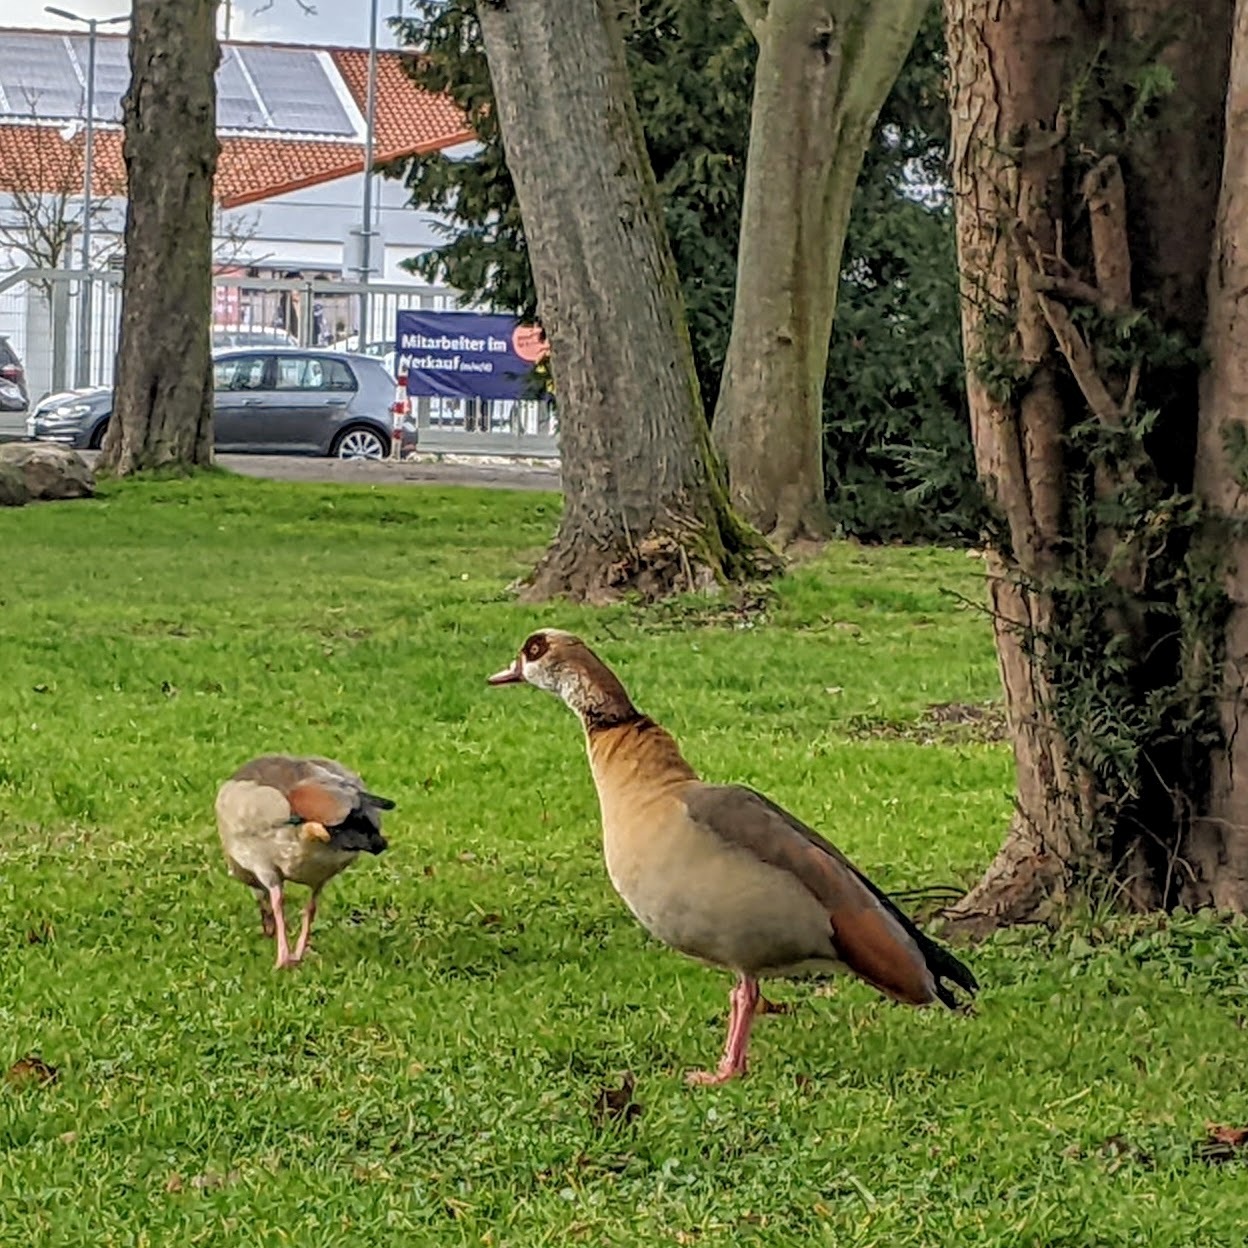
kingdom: Animalia
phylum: Chordata
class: Aves
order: Anseriformes
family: Anatidae
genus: Alopochen
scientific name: Alopochen aegyptiaca
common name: Egyptian goose
